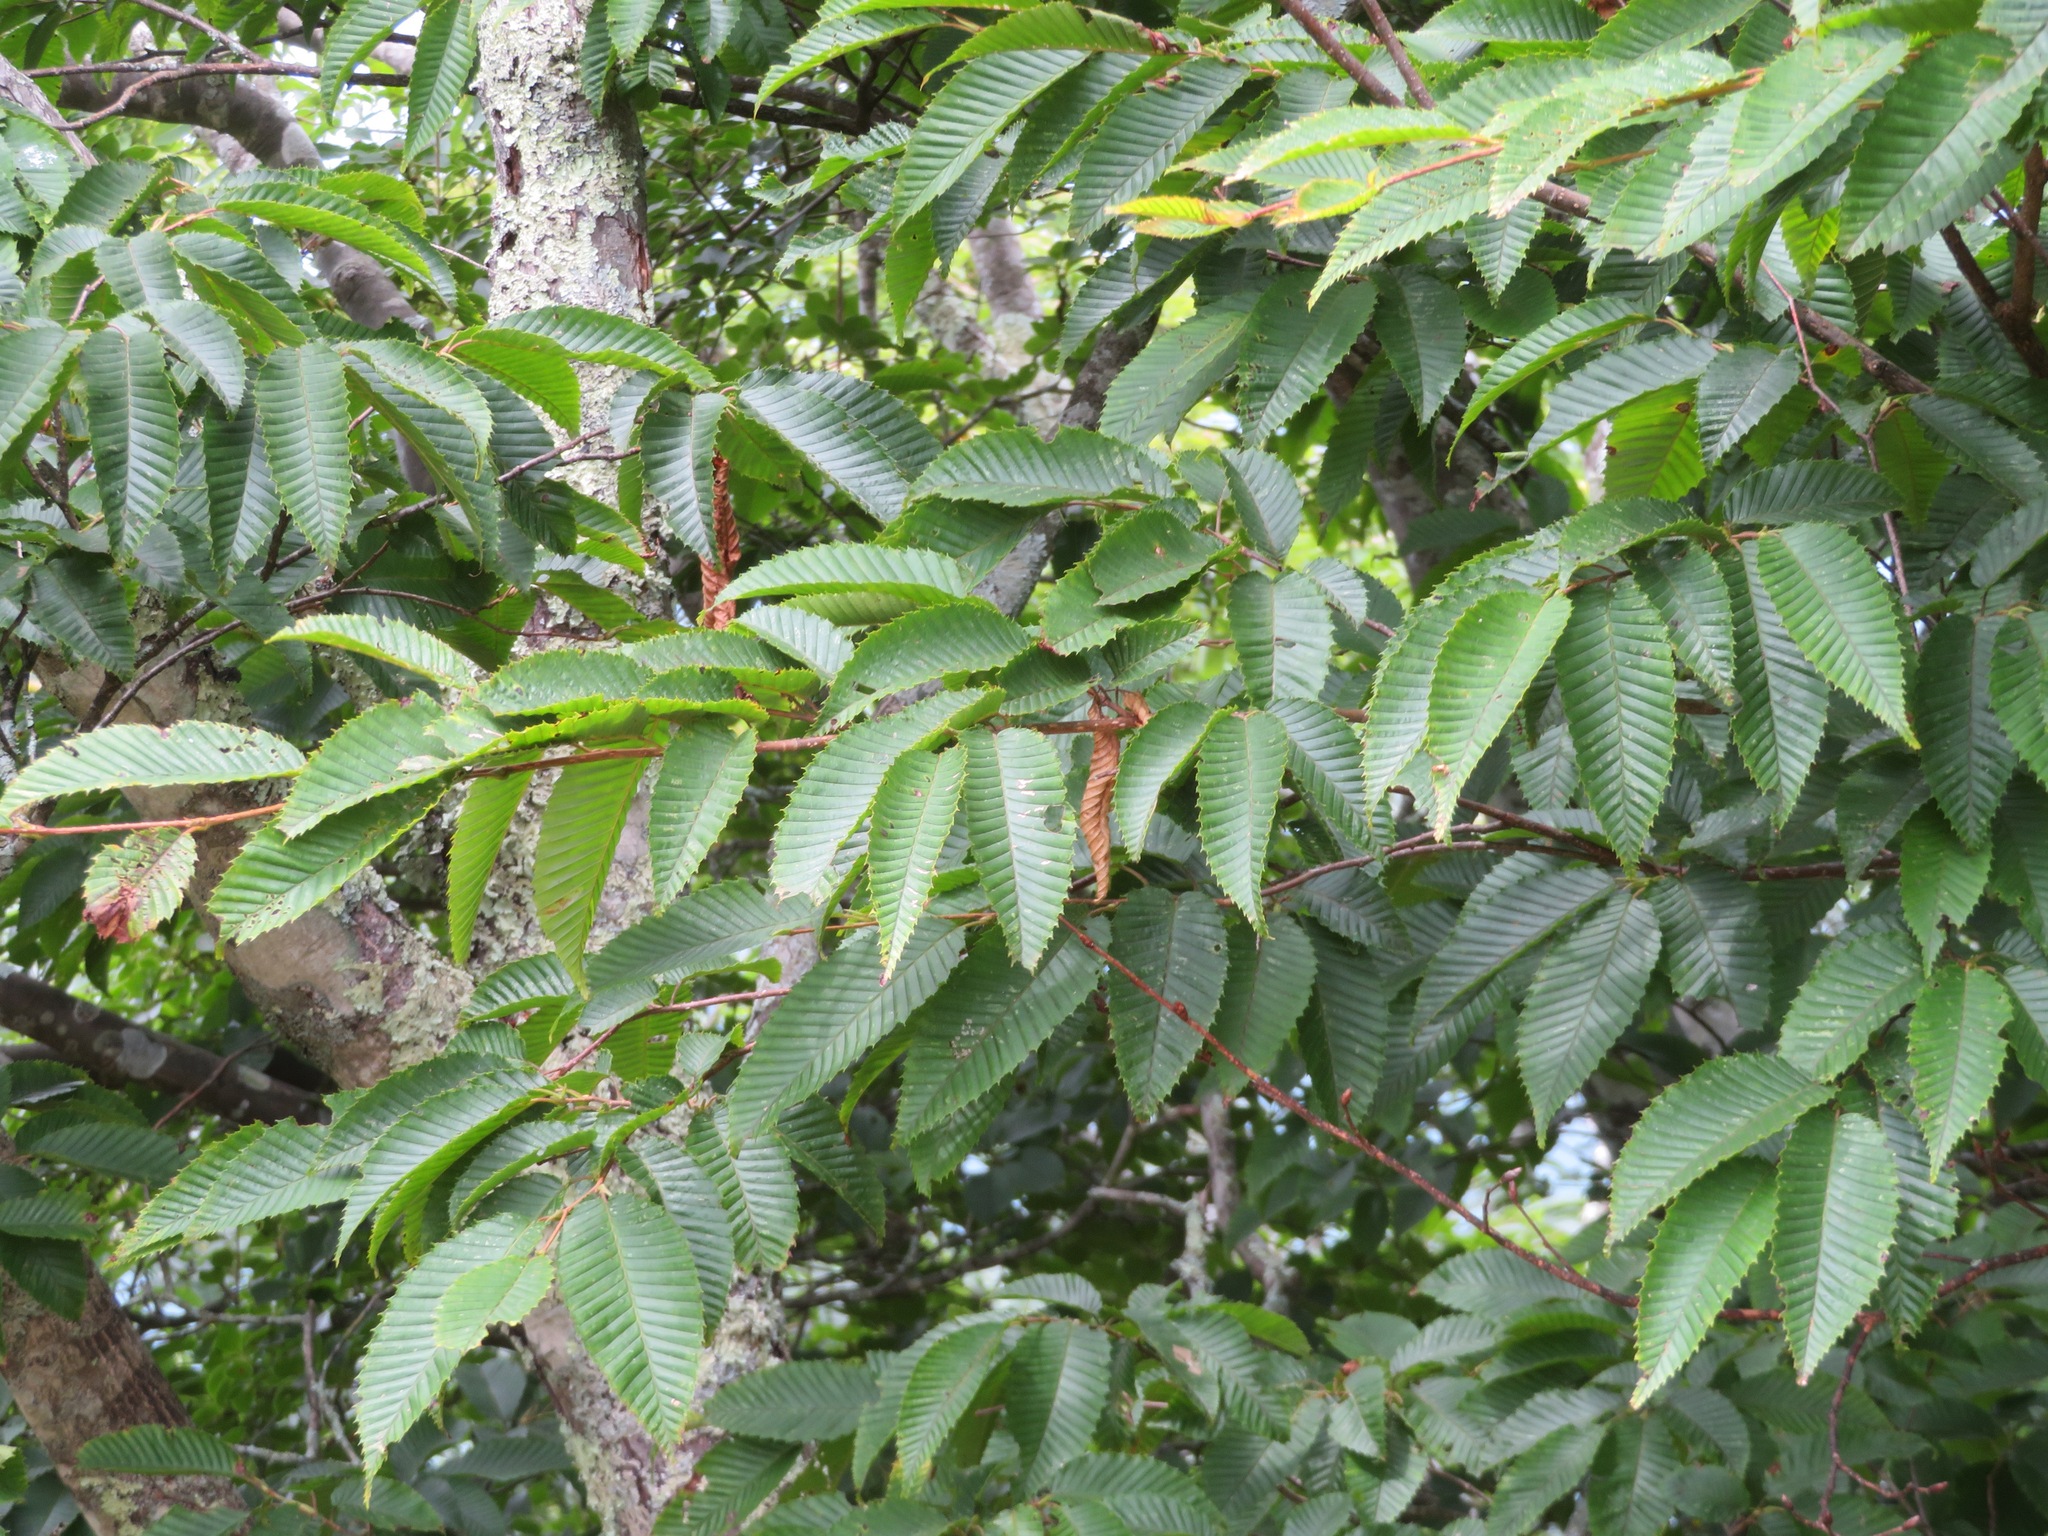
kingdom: Plantae
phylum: Tracheophyta
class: Magnoliopsida
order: Fagales
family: Betulaceae
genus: Carpinus
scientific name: Carpinus japonica
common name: Japanese hornbeam
